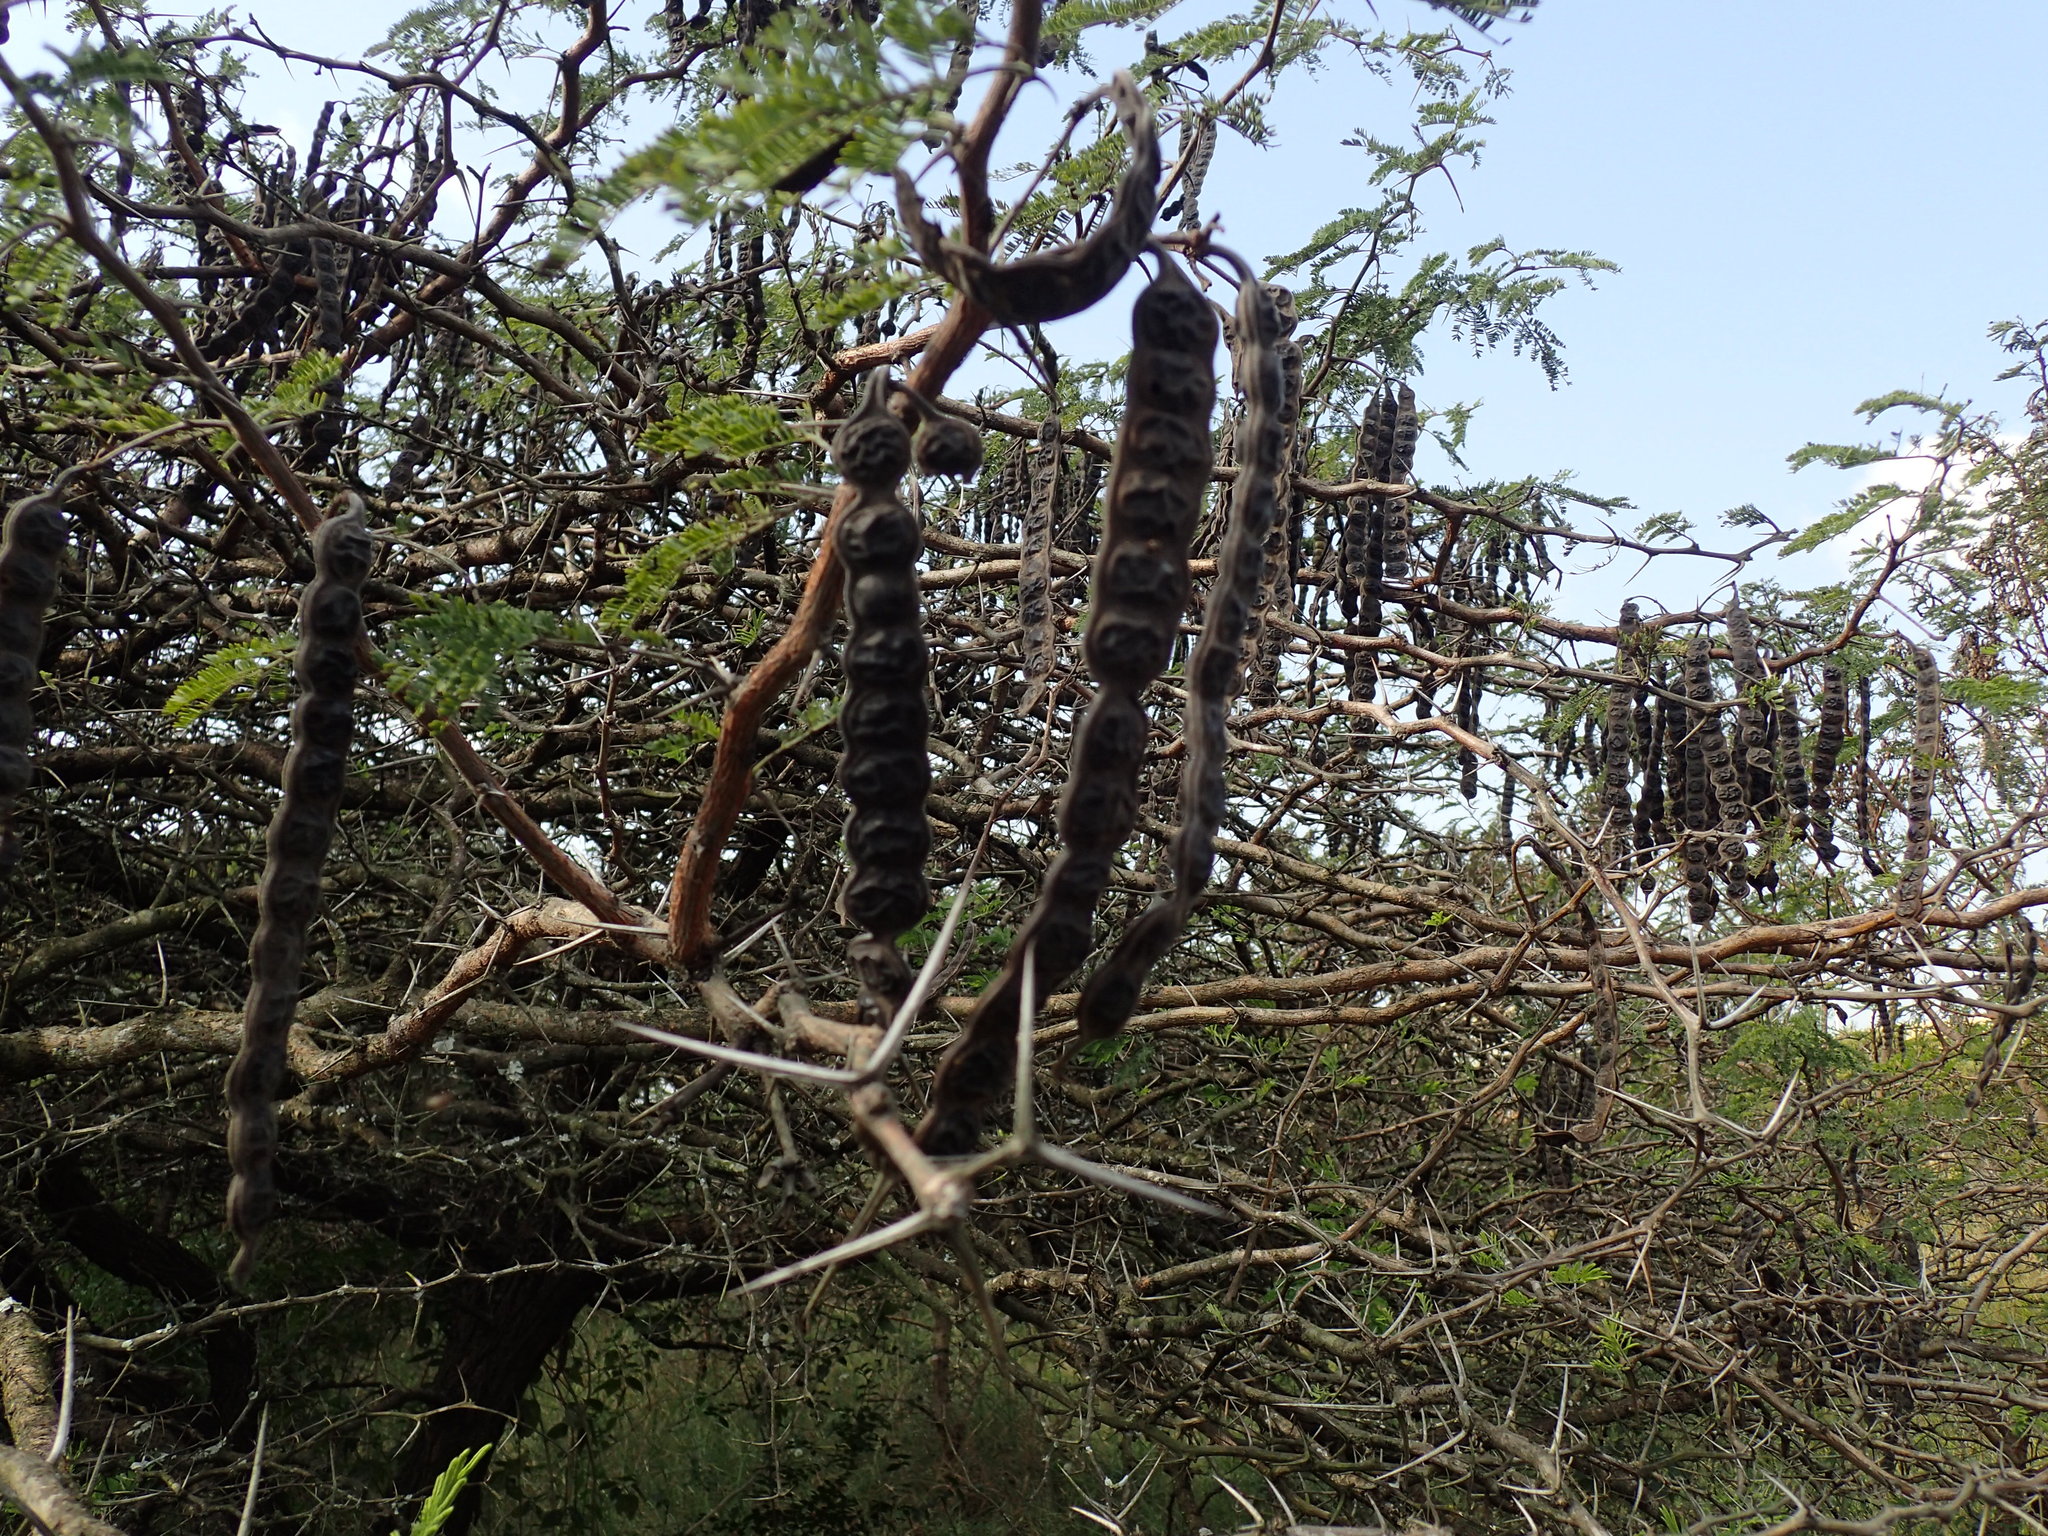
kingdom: Plantae
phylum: Tracheophyta
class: Magnoliopsida
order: Fabales
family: Fabaceae
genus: Vachellia
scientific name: Vachellia nilotica
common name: Arabic gumtree
